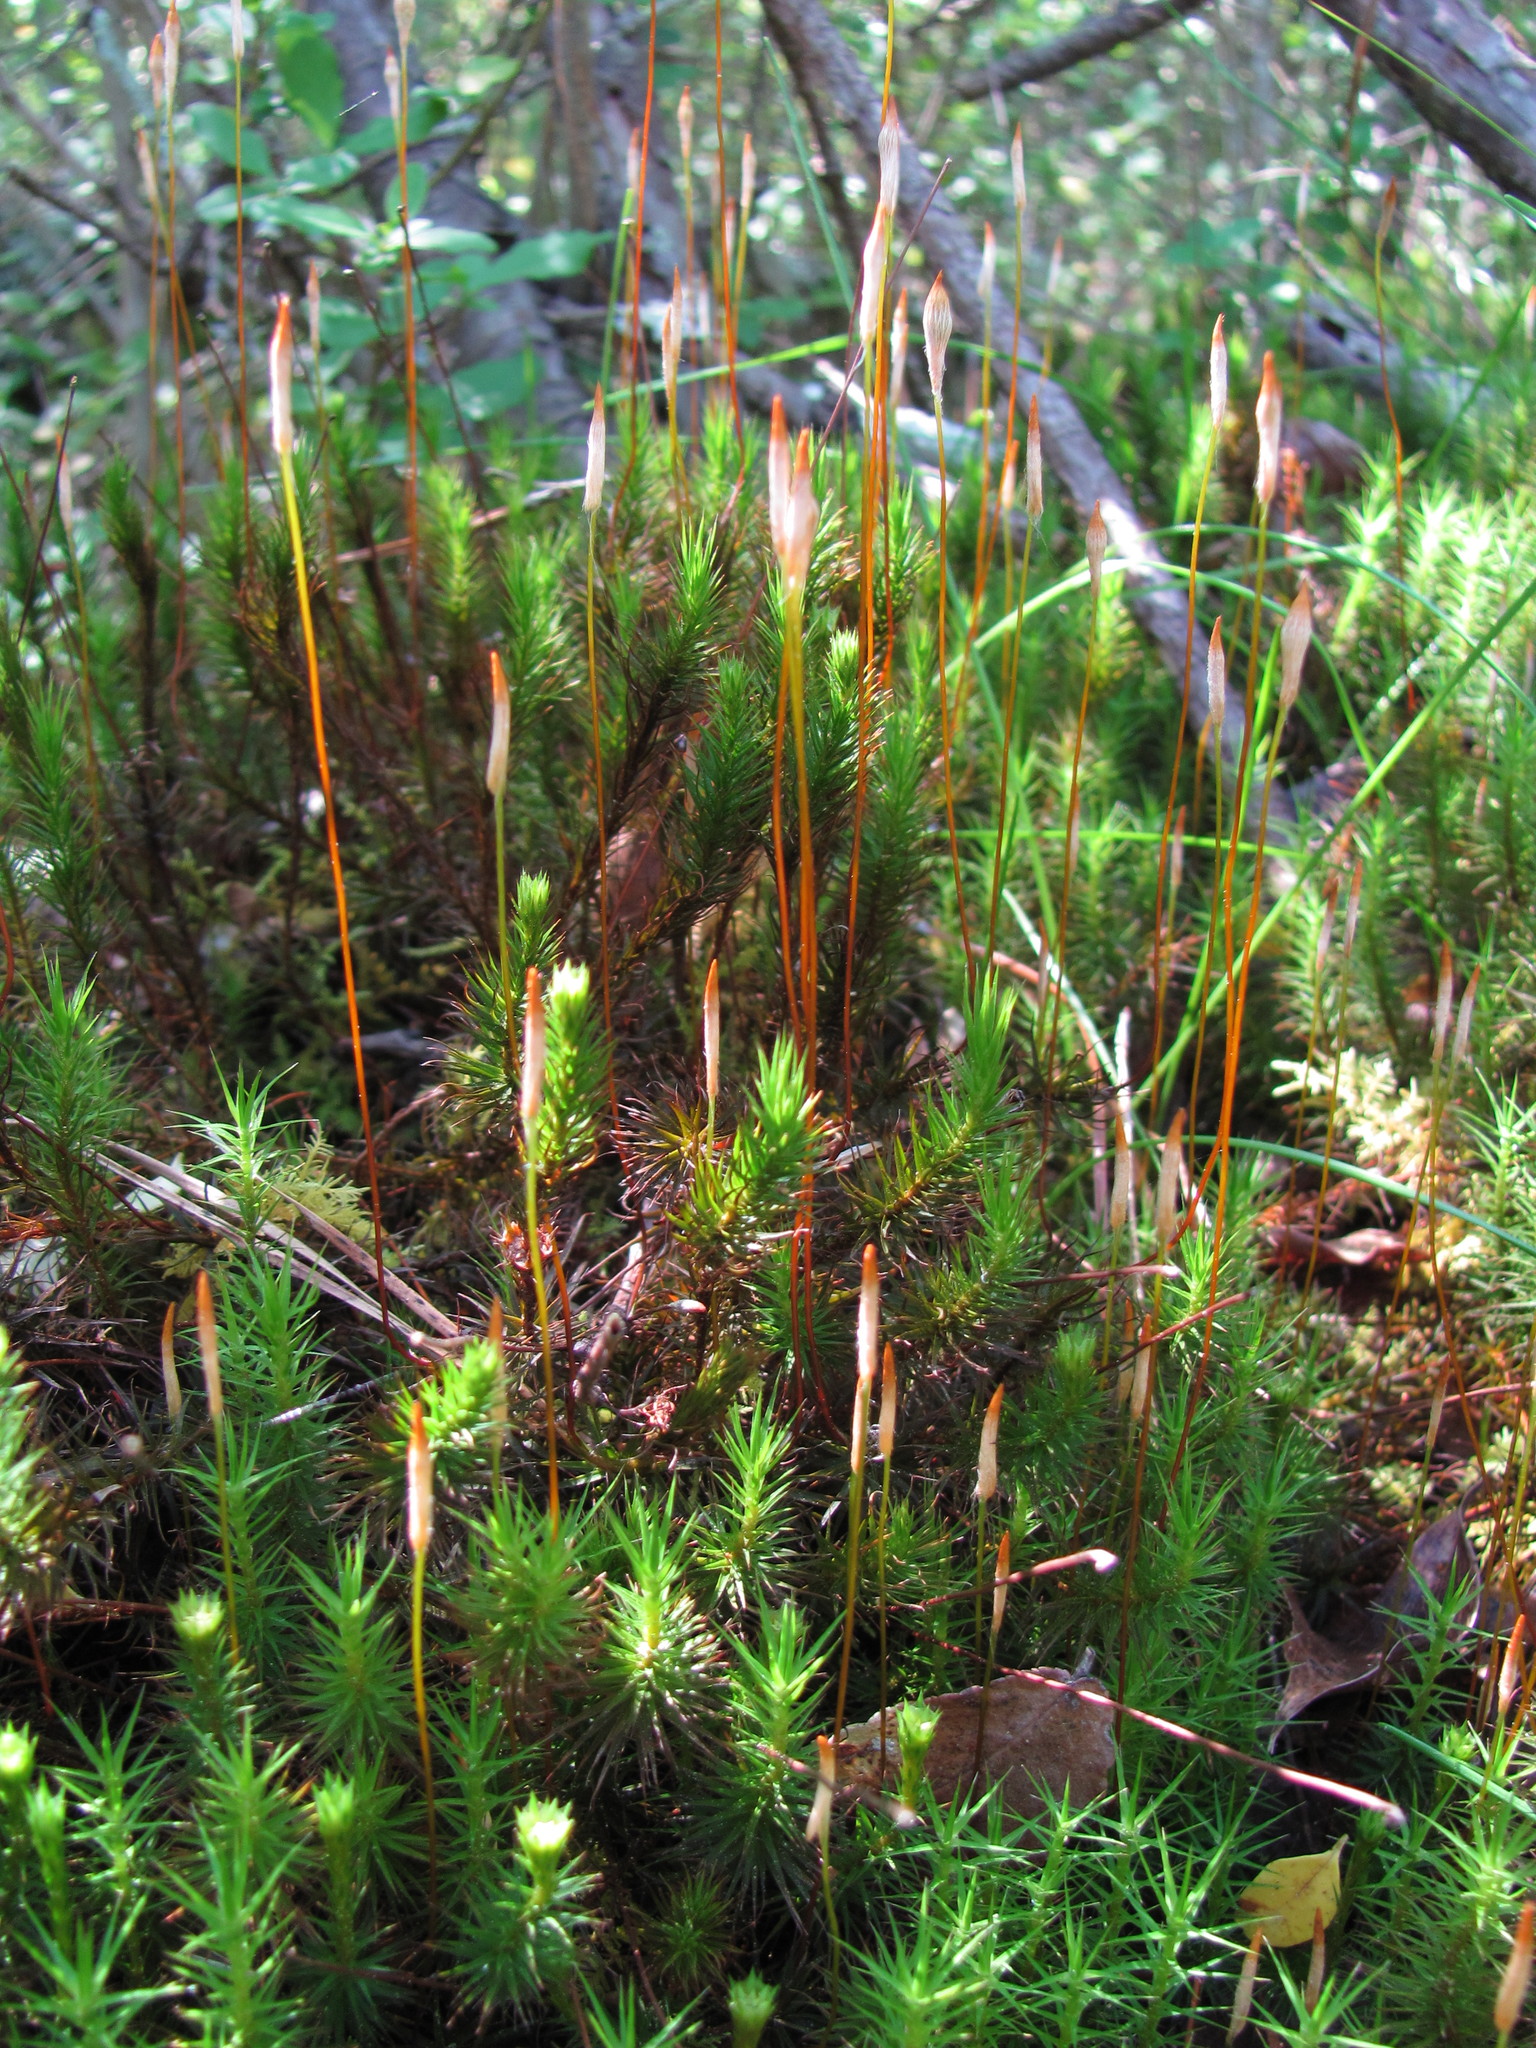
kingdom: Plantae
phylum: Bryophyta
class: Polytrichopsida
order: Polytrichales
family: Polytrichaceae
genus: Polytrichum
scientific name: Polytrichum commune
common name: Common haircap
